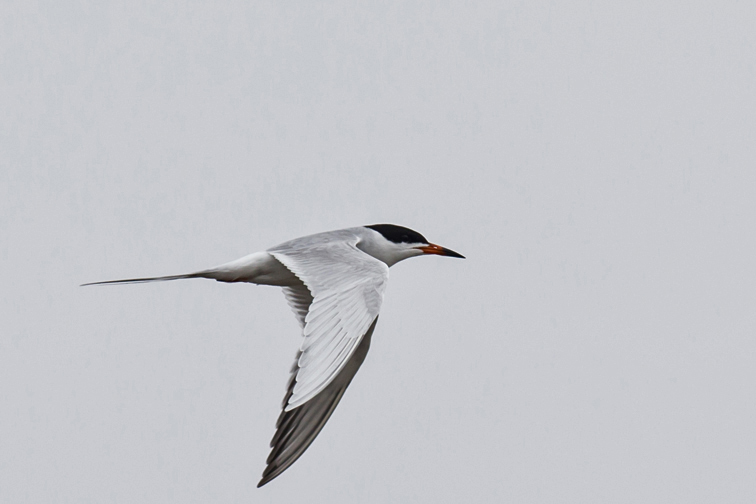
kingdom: Animalia
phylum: Chordata
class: Aves
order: Charadriiformes
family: Laridae
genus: Sterna
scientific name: Sterna forsteri
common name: Forster's tern
